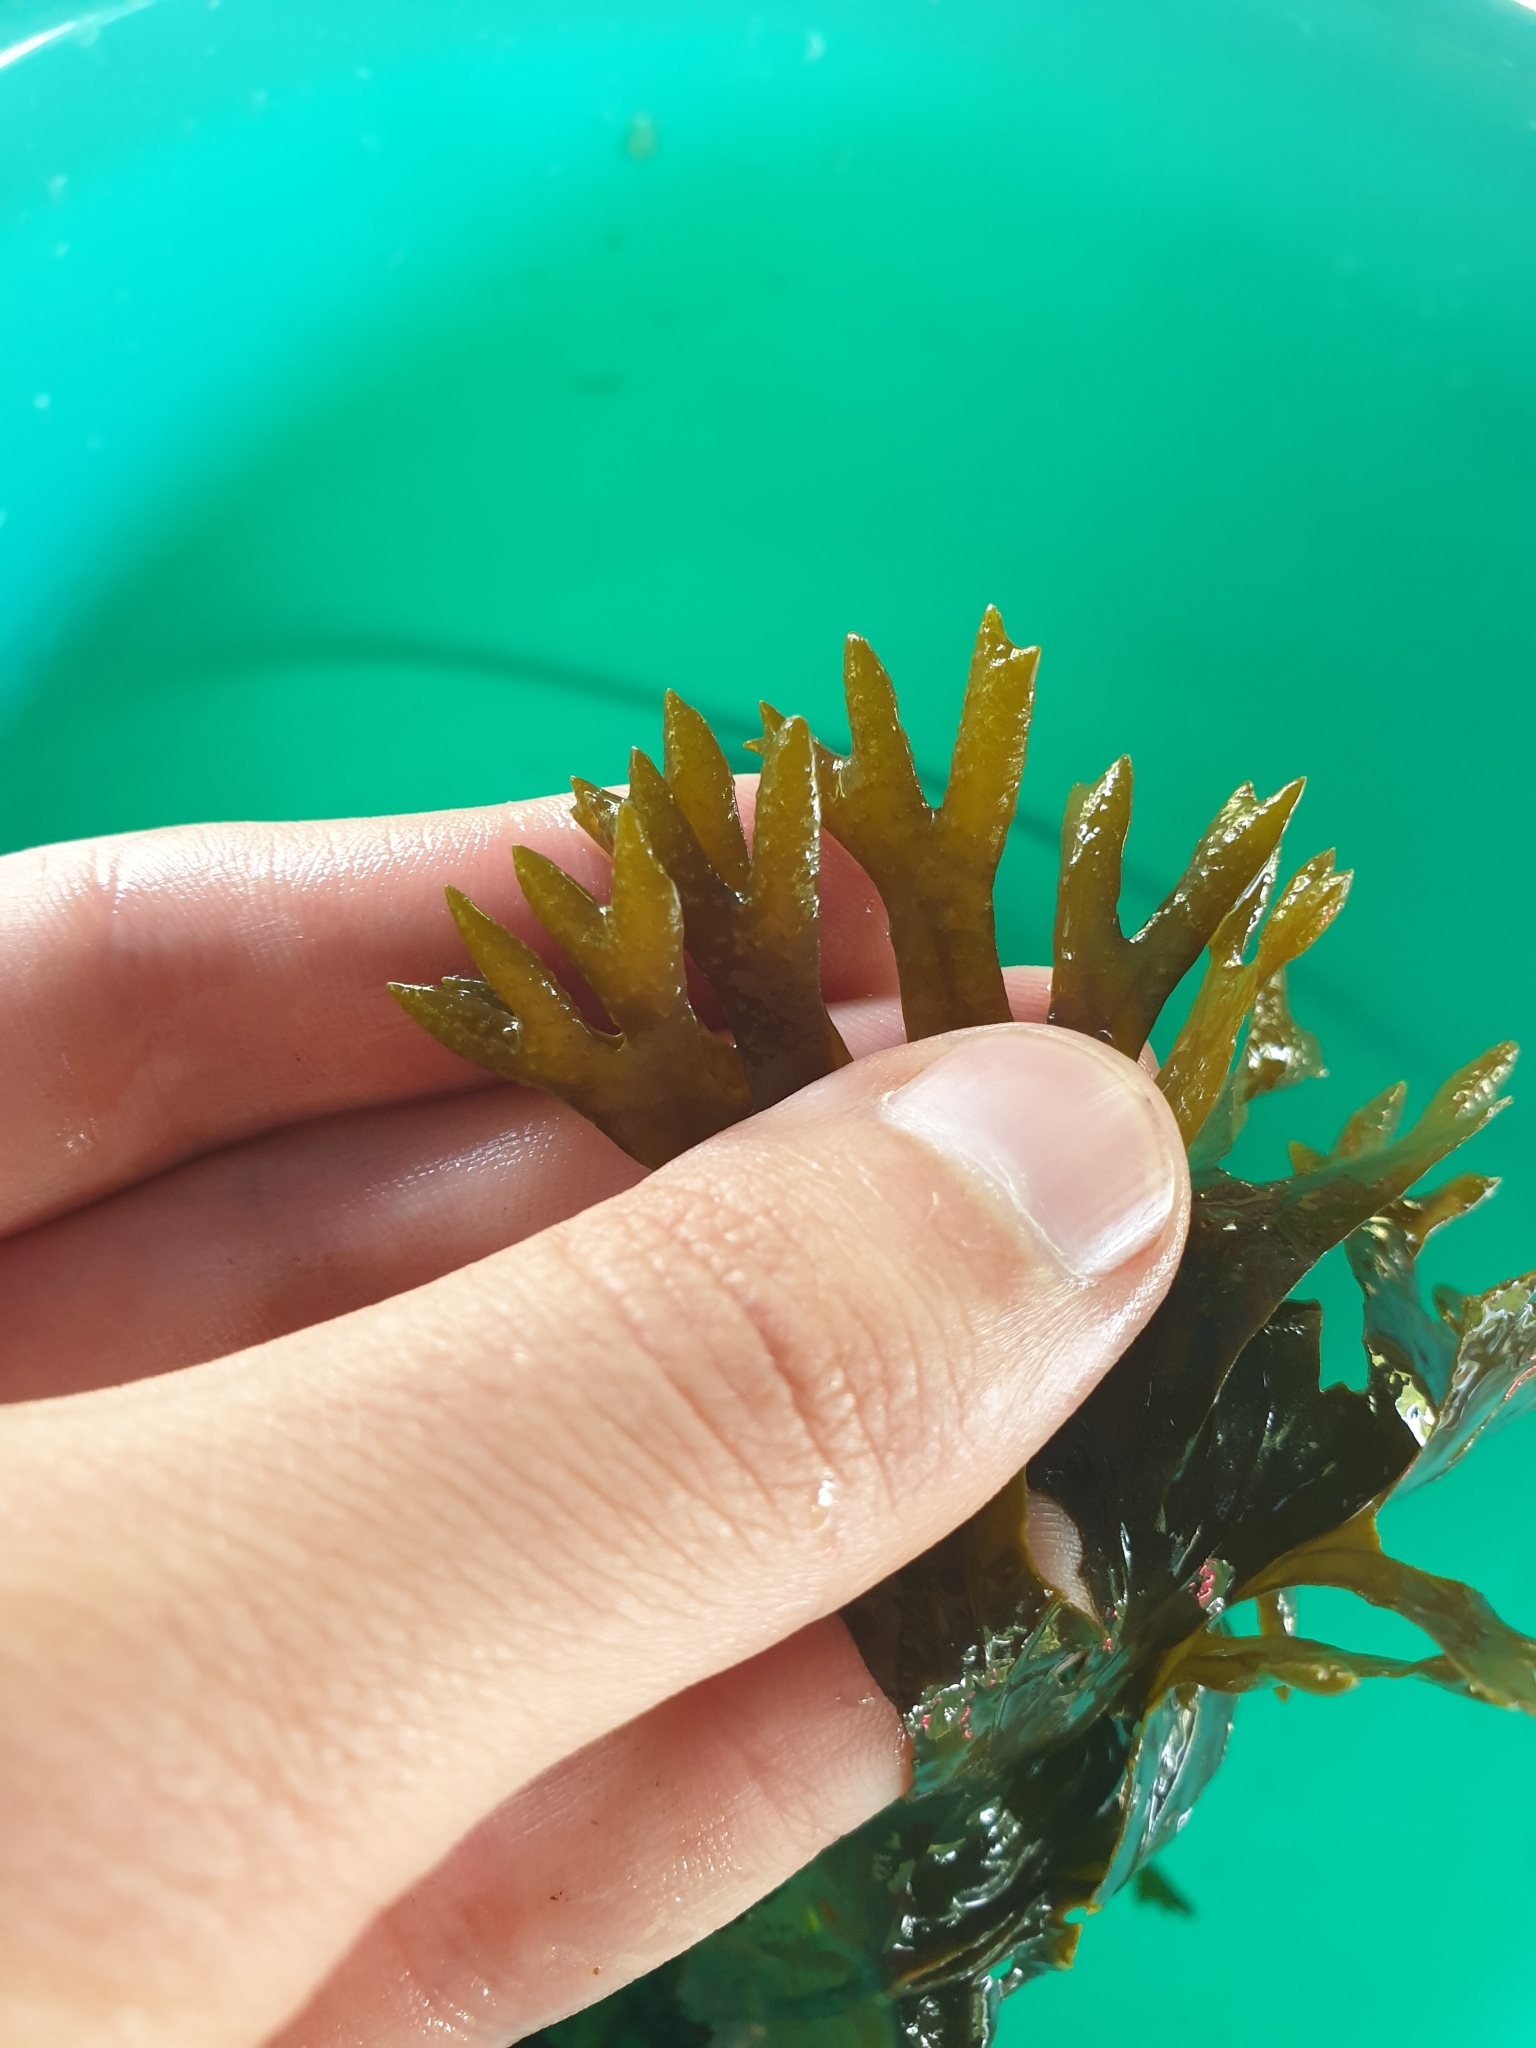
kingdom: Chromista
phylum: Ochrophyta
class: Phaeophyceae
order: Fucales
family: Fucaceae
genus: Fucus
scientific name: Fucus ceranoides
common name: Horned wrack
